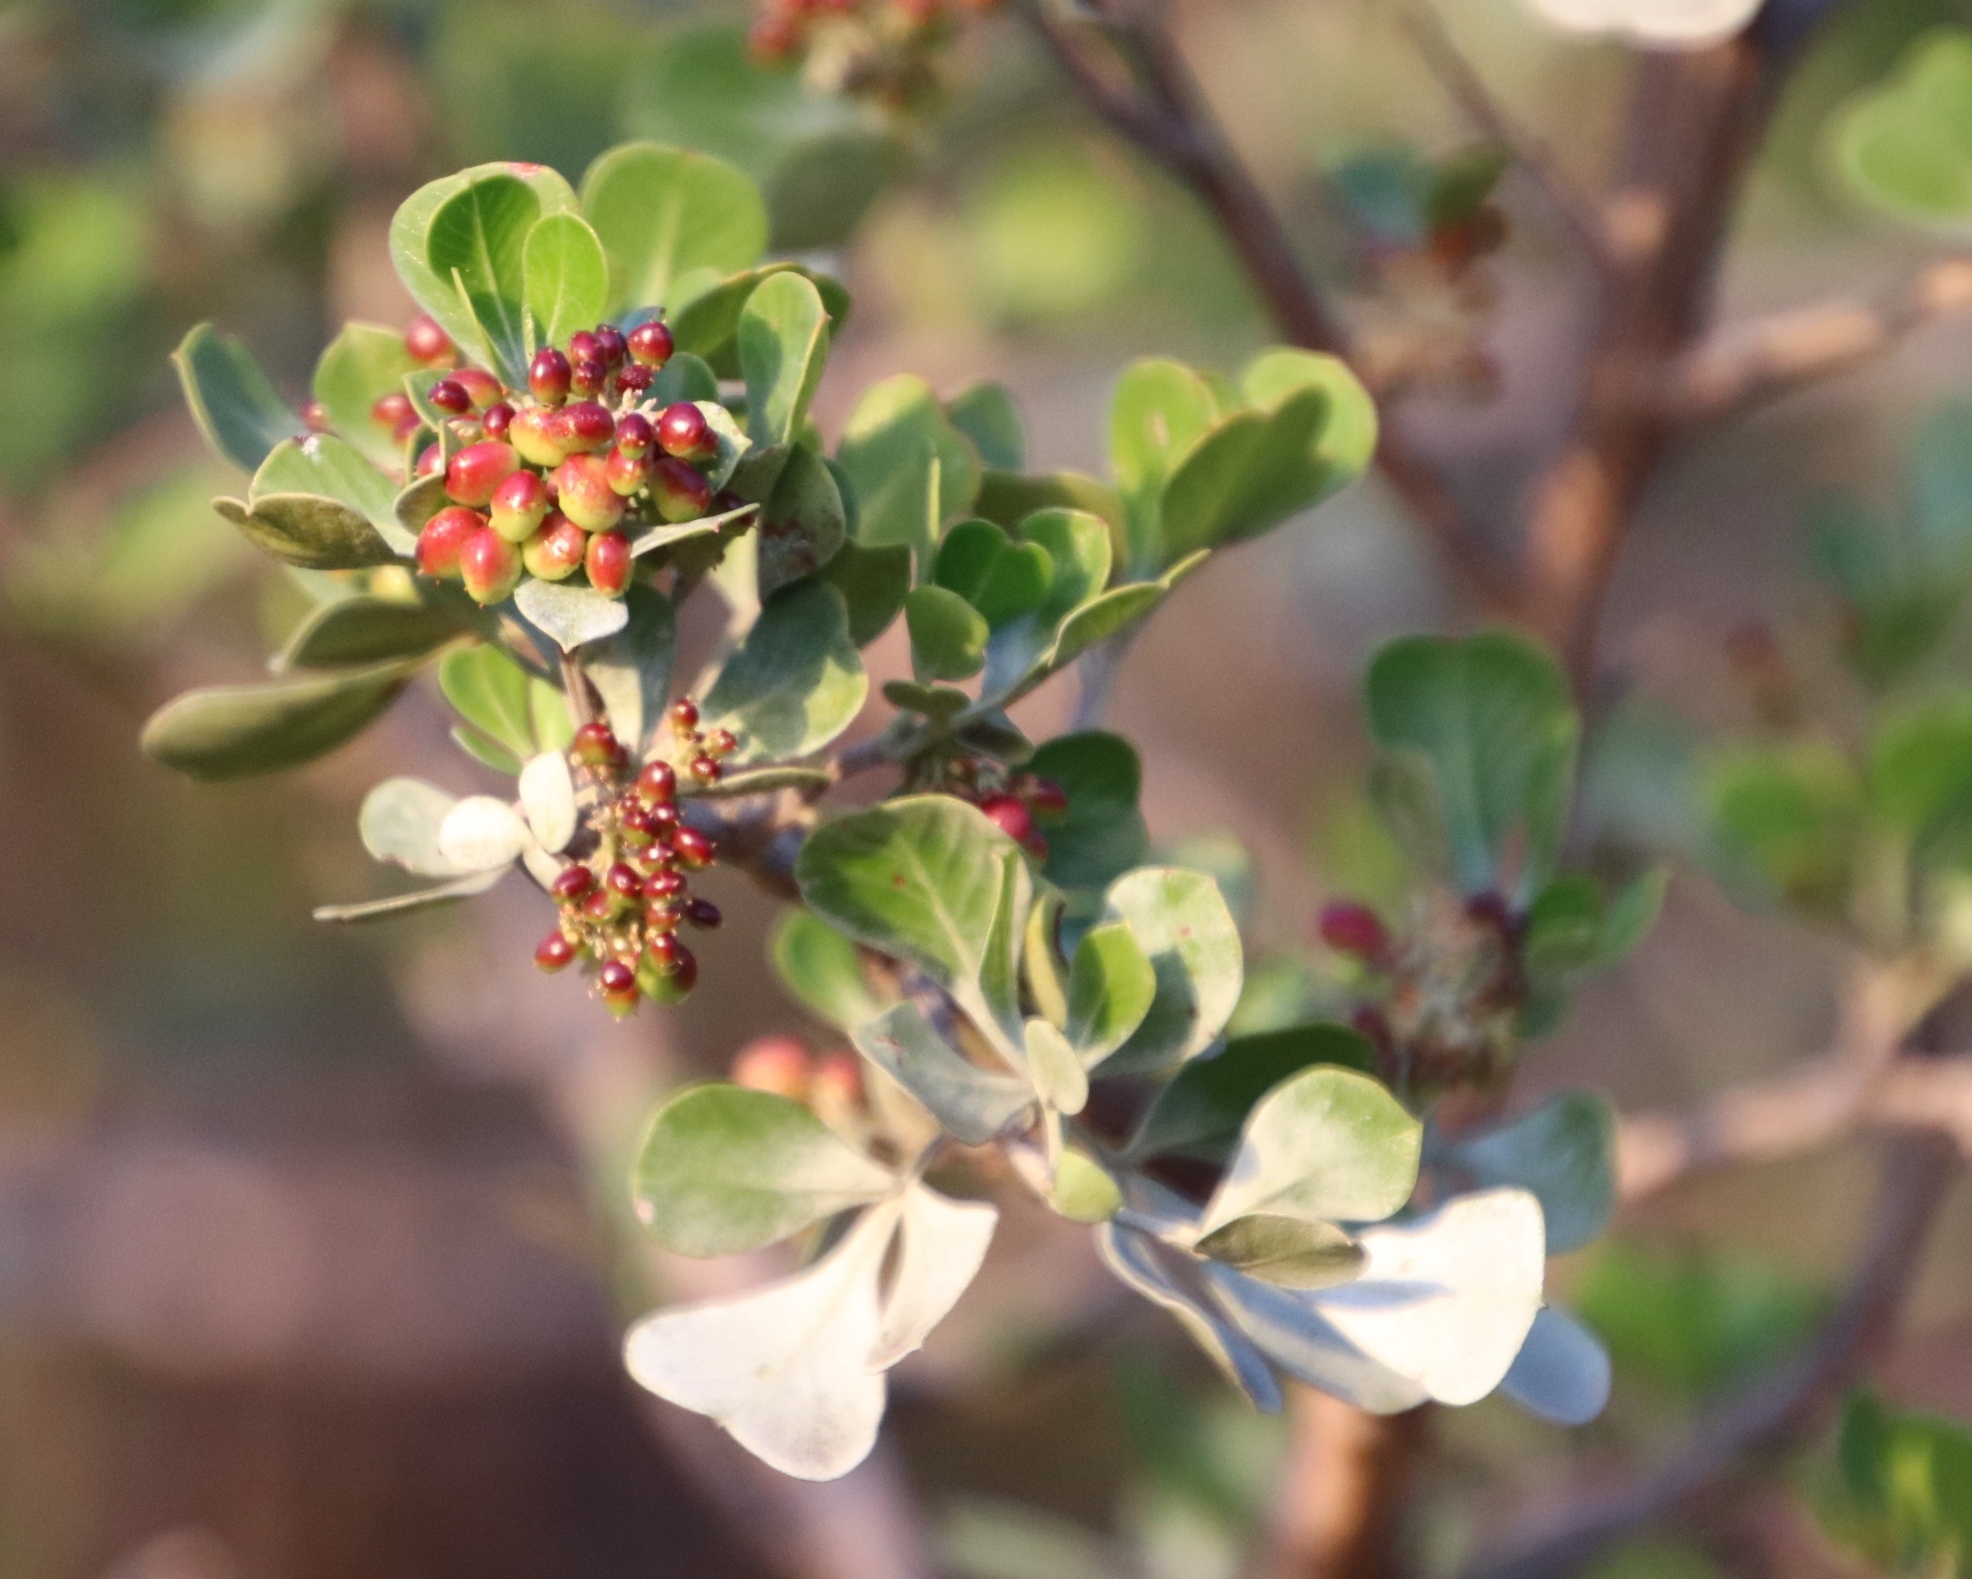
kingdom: Plantae
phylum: Tracheophyta
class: Magnoliopsida
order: Sapindales
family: Anacardiaceae
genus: Searsia
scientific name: Searsia glauca
